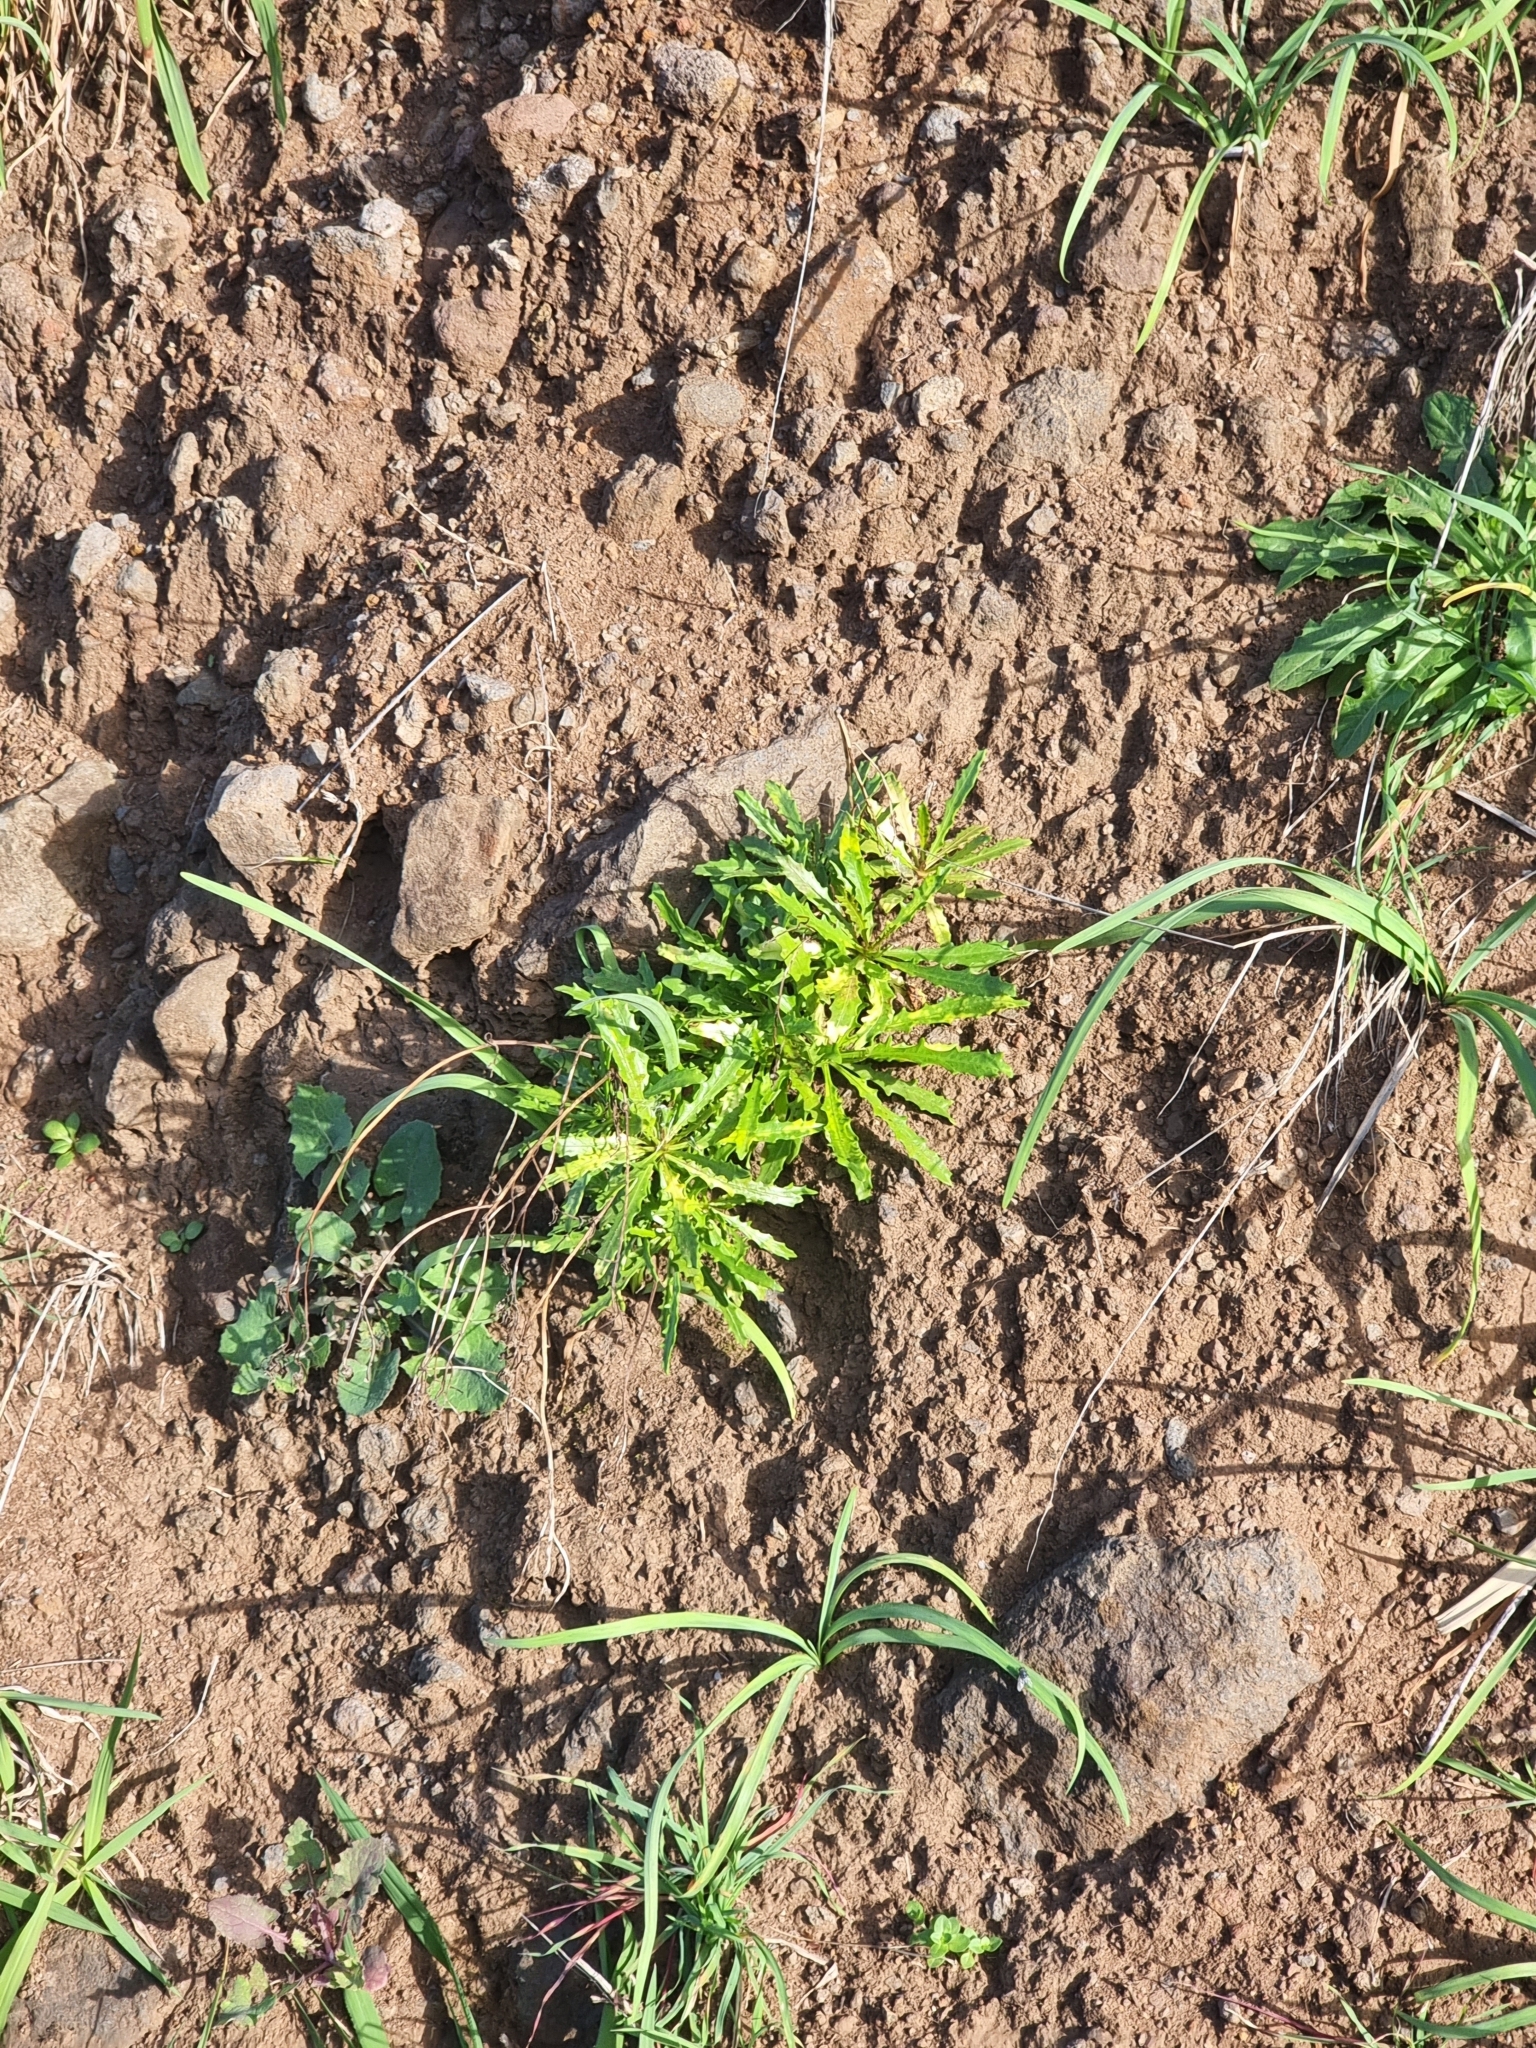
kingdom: Plantae
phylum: Tracheophyta
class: Magnoliopsida
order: Asterales
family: Asteraceae
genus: Tolpis
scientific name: Tolpis succulenta
